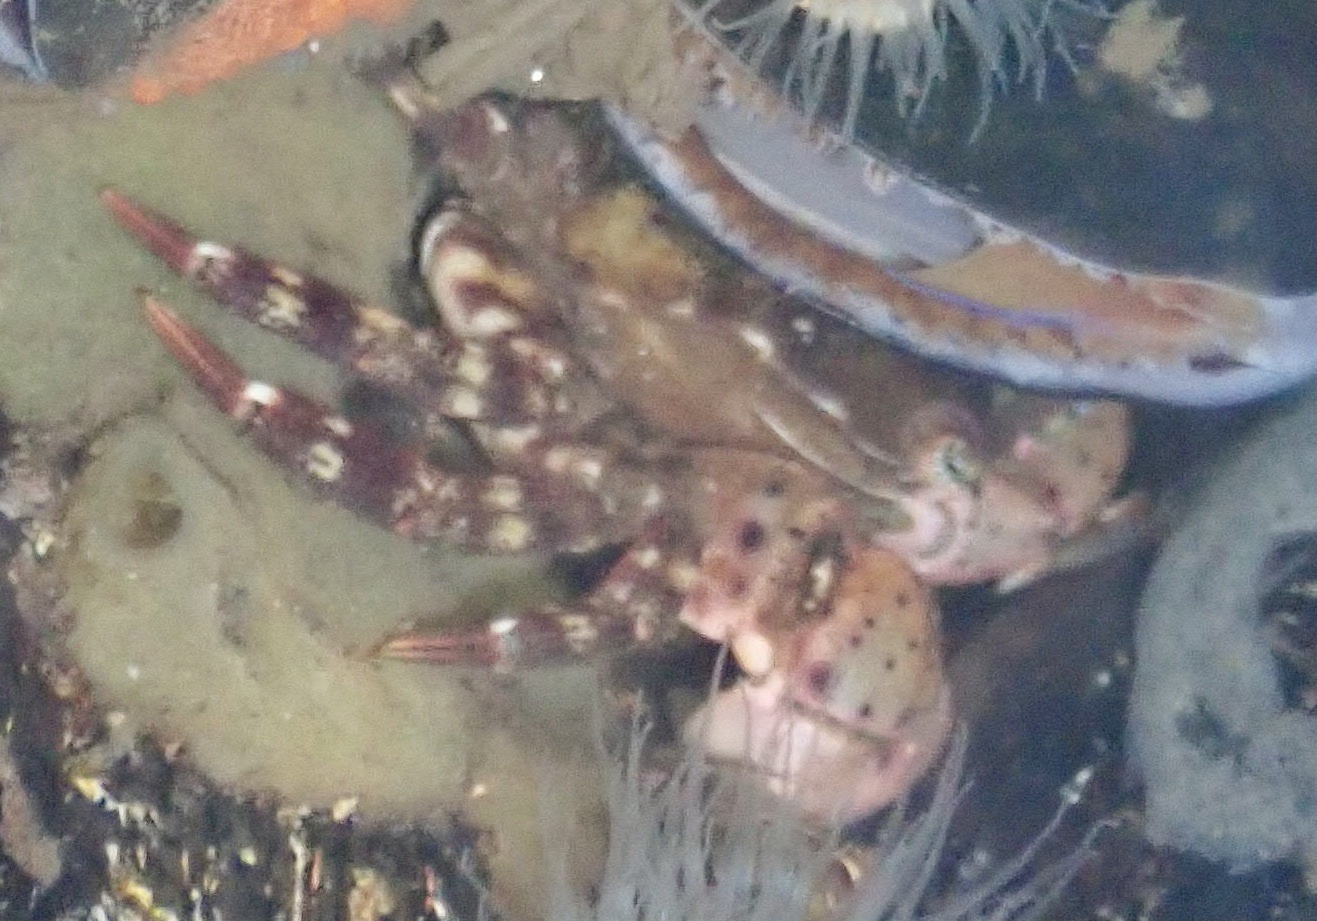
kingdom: Animalia
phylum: Arthropoda
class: Malacostraca
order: Decapoda
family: Varunidae
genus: Hemigrapsus
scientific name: Hemigrapsus sanguineus
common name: Asian shore crab
